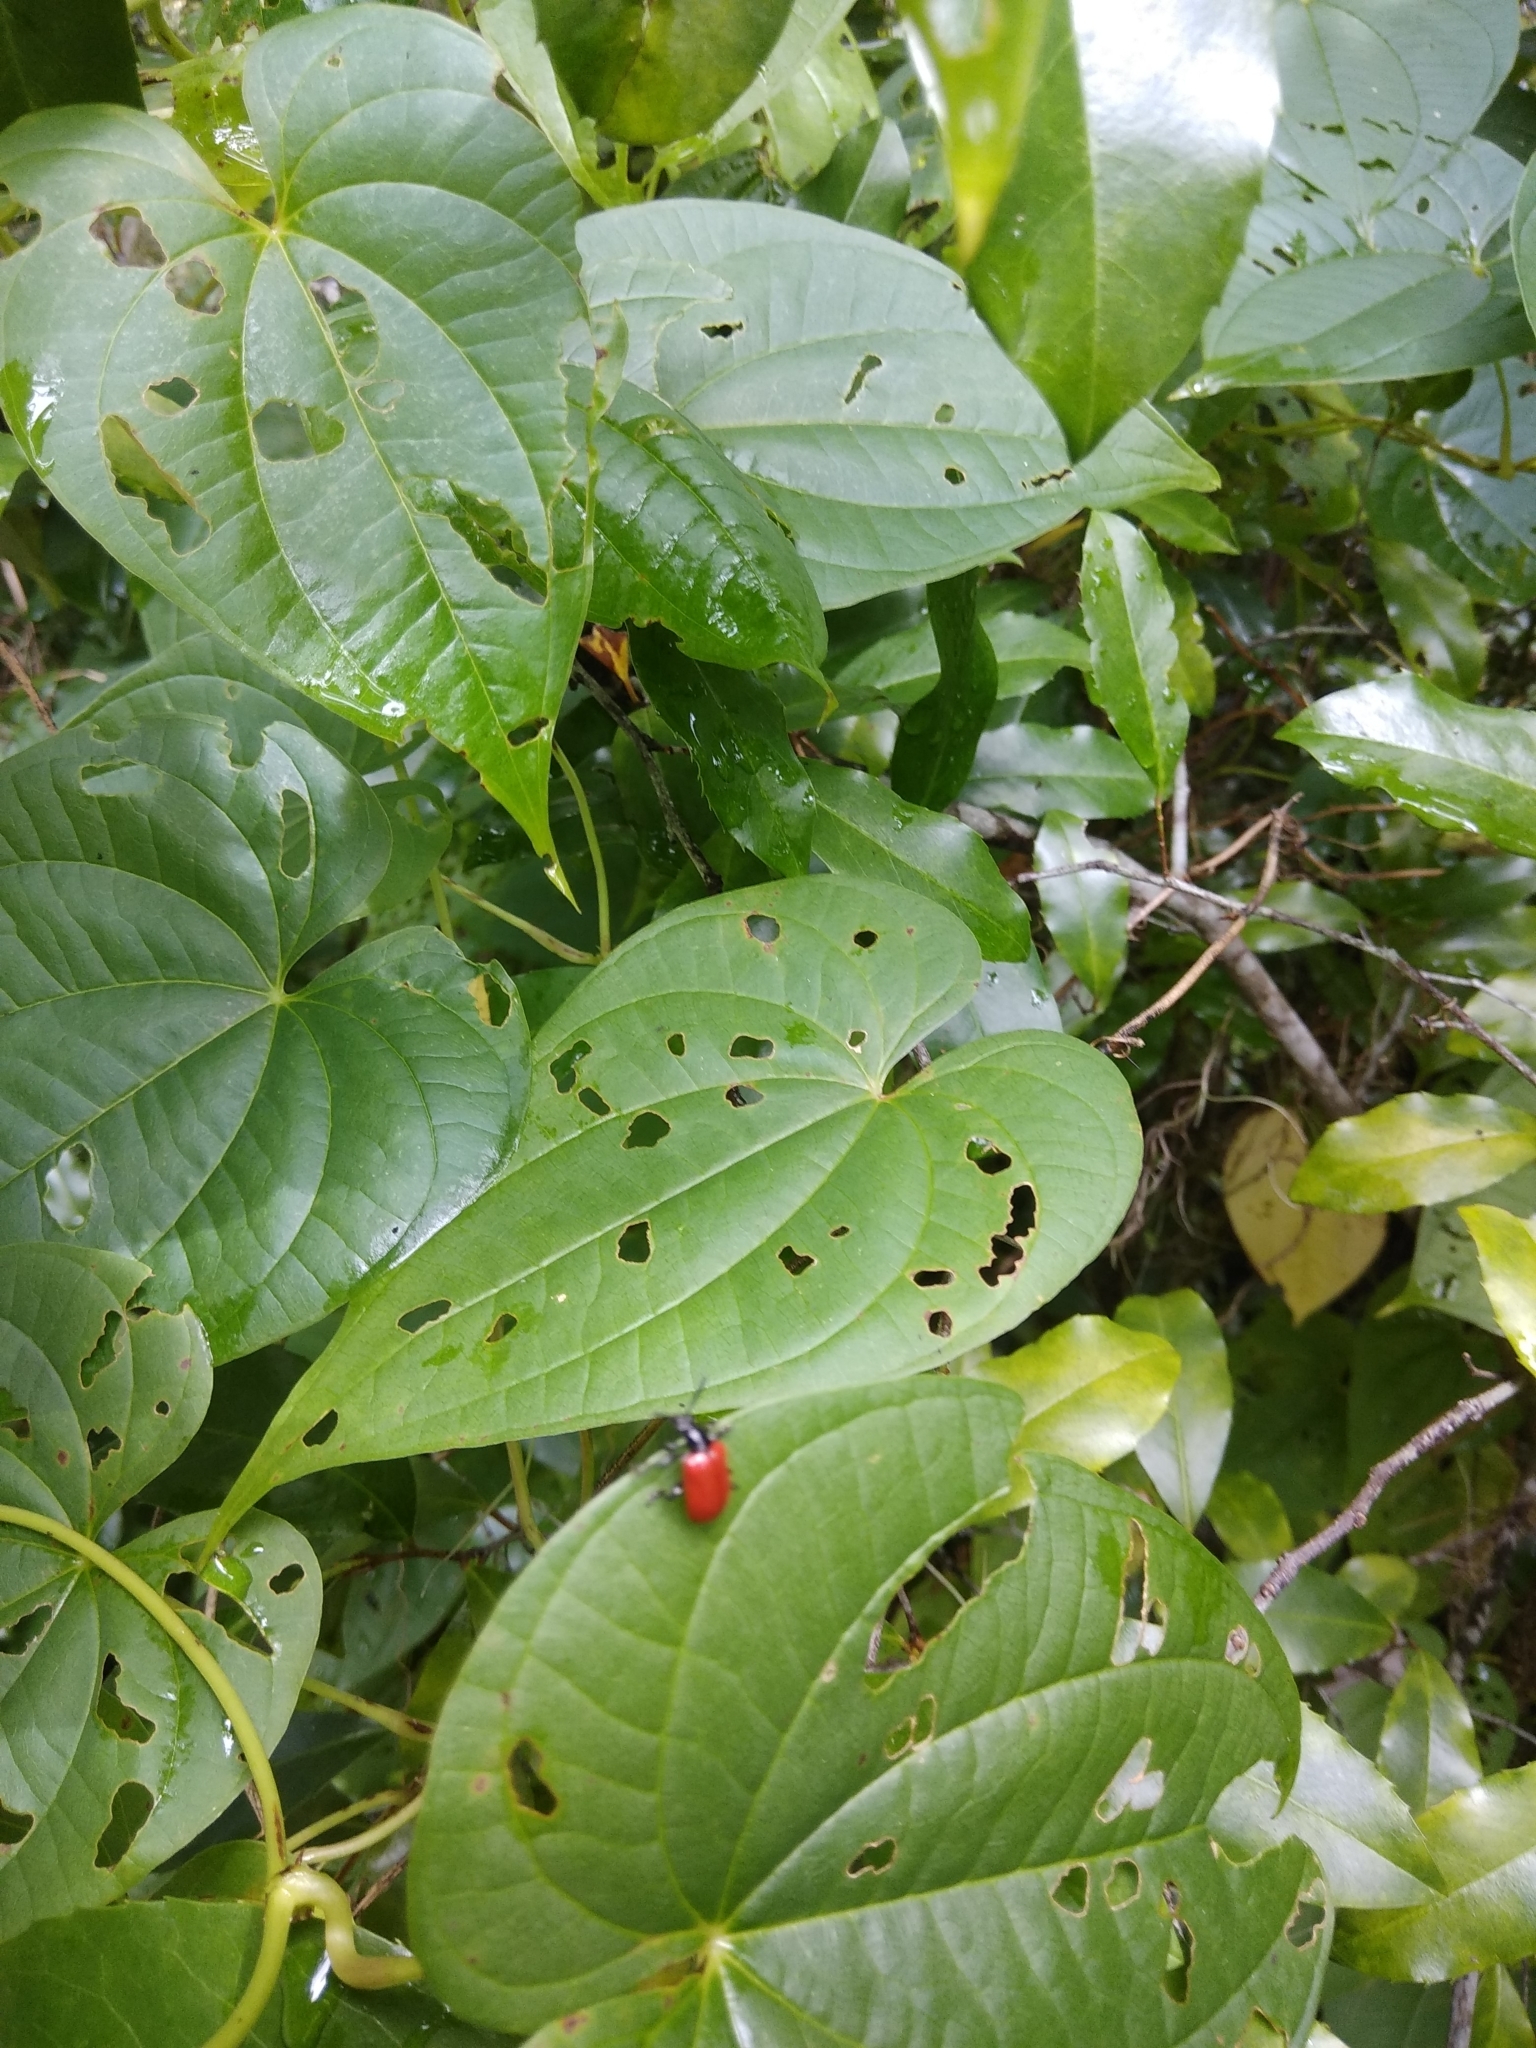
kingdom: Animalia
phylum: Arthropoda
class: Insecta
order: Coleoptera
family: Chrysomelidae
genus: Lilioceris
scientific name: Lilioceris cheni
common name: Leaf beetle
